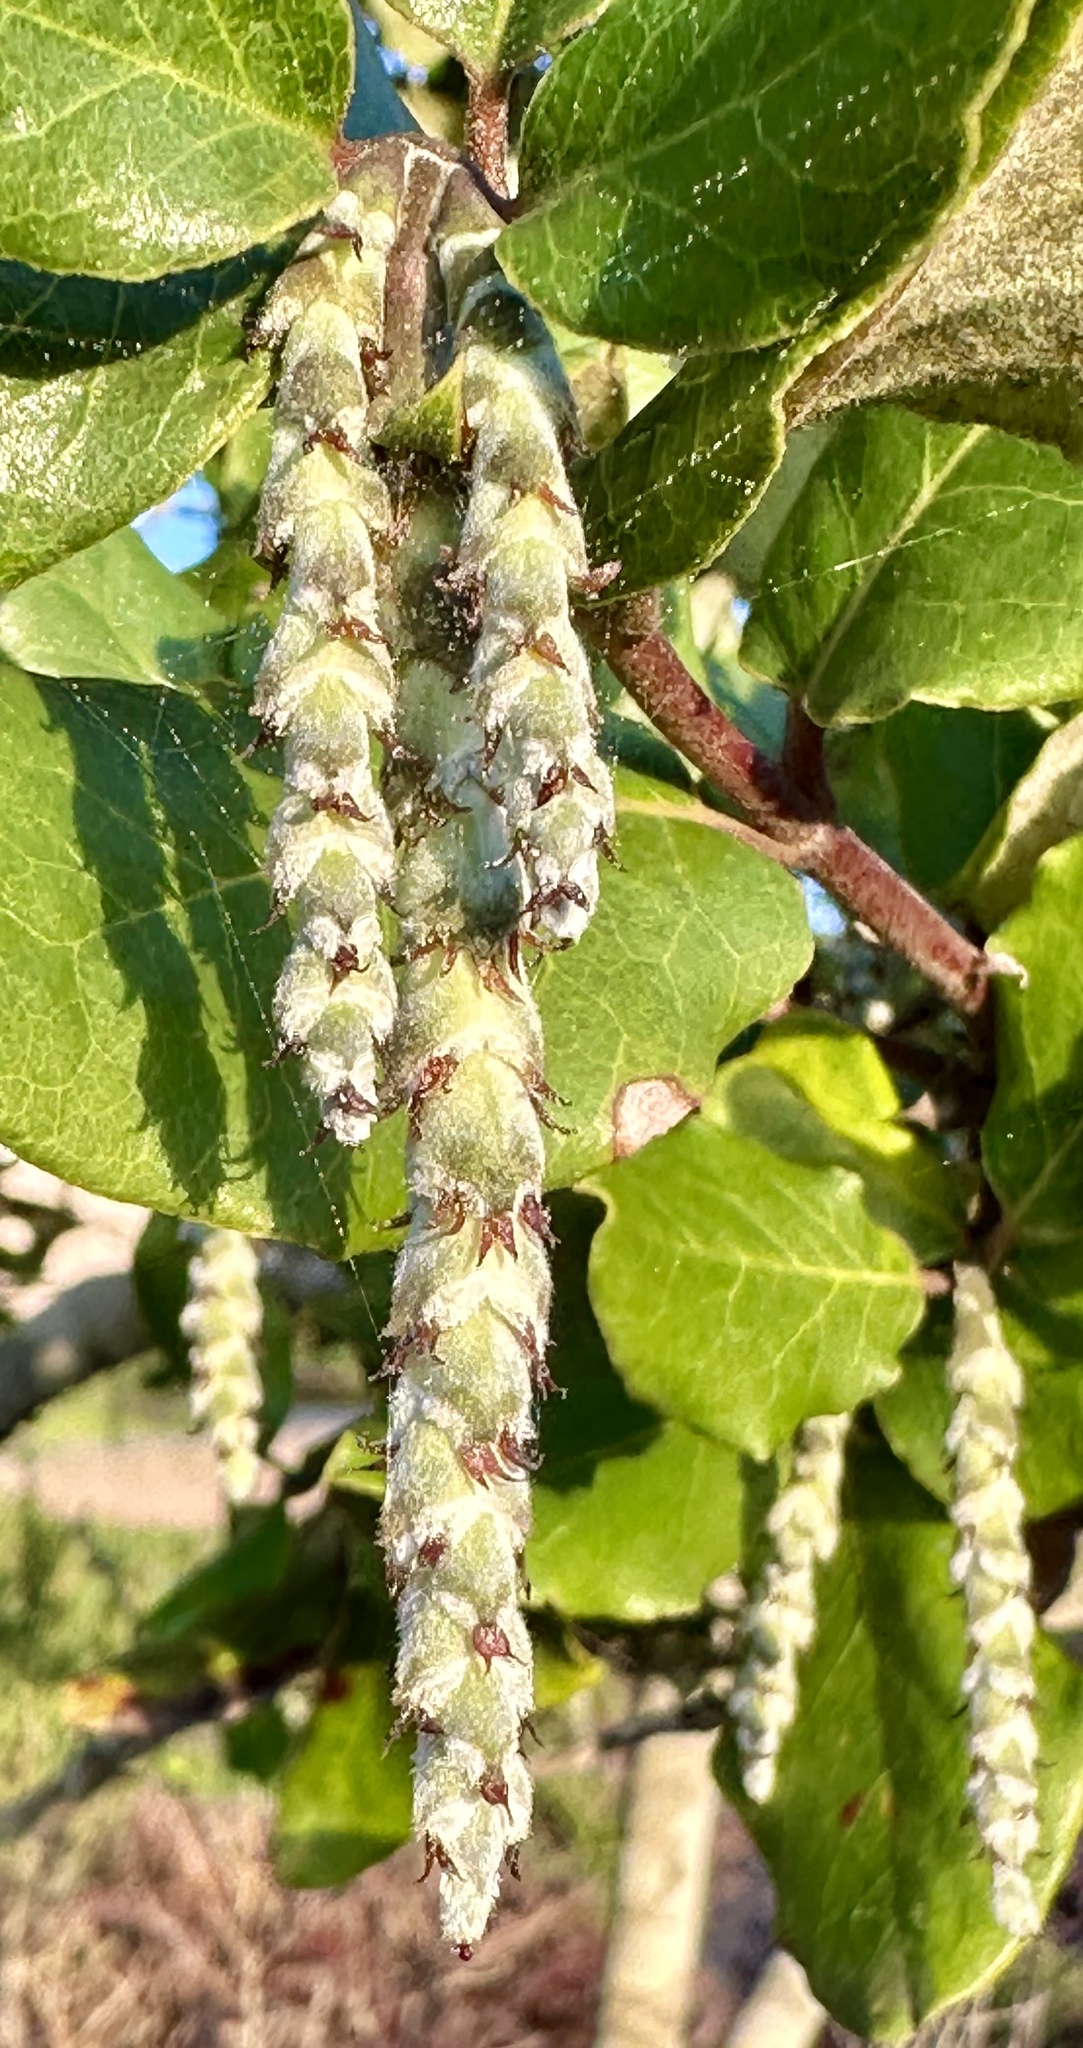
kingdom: Plantae
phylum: Tracheophyta
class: Magnoliopsida
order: Garryales
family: Garryaceae
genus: Garrya
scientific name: Garrya elliptica
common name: Silk-tassel
